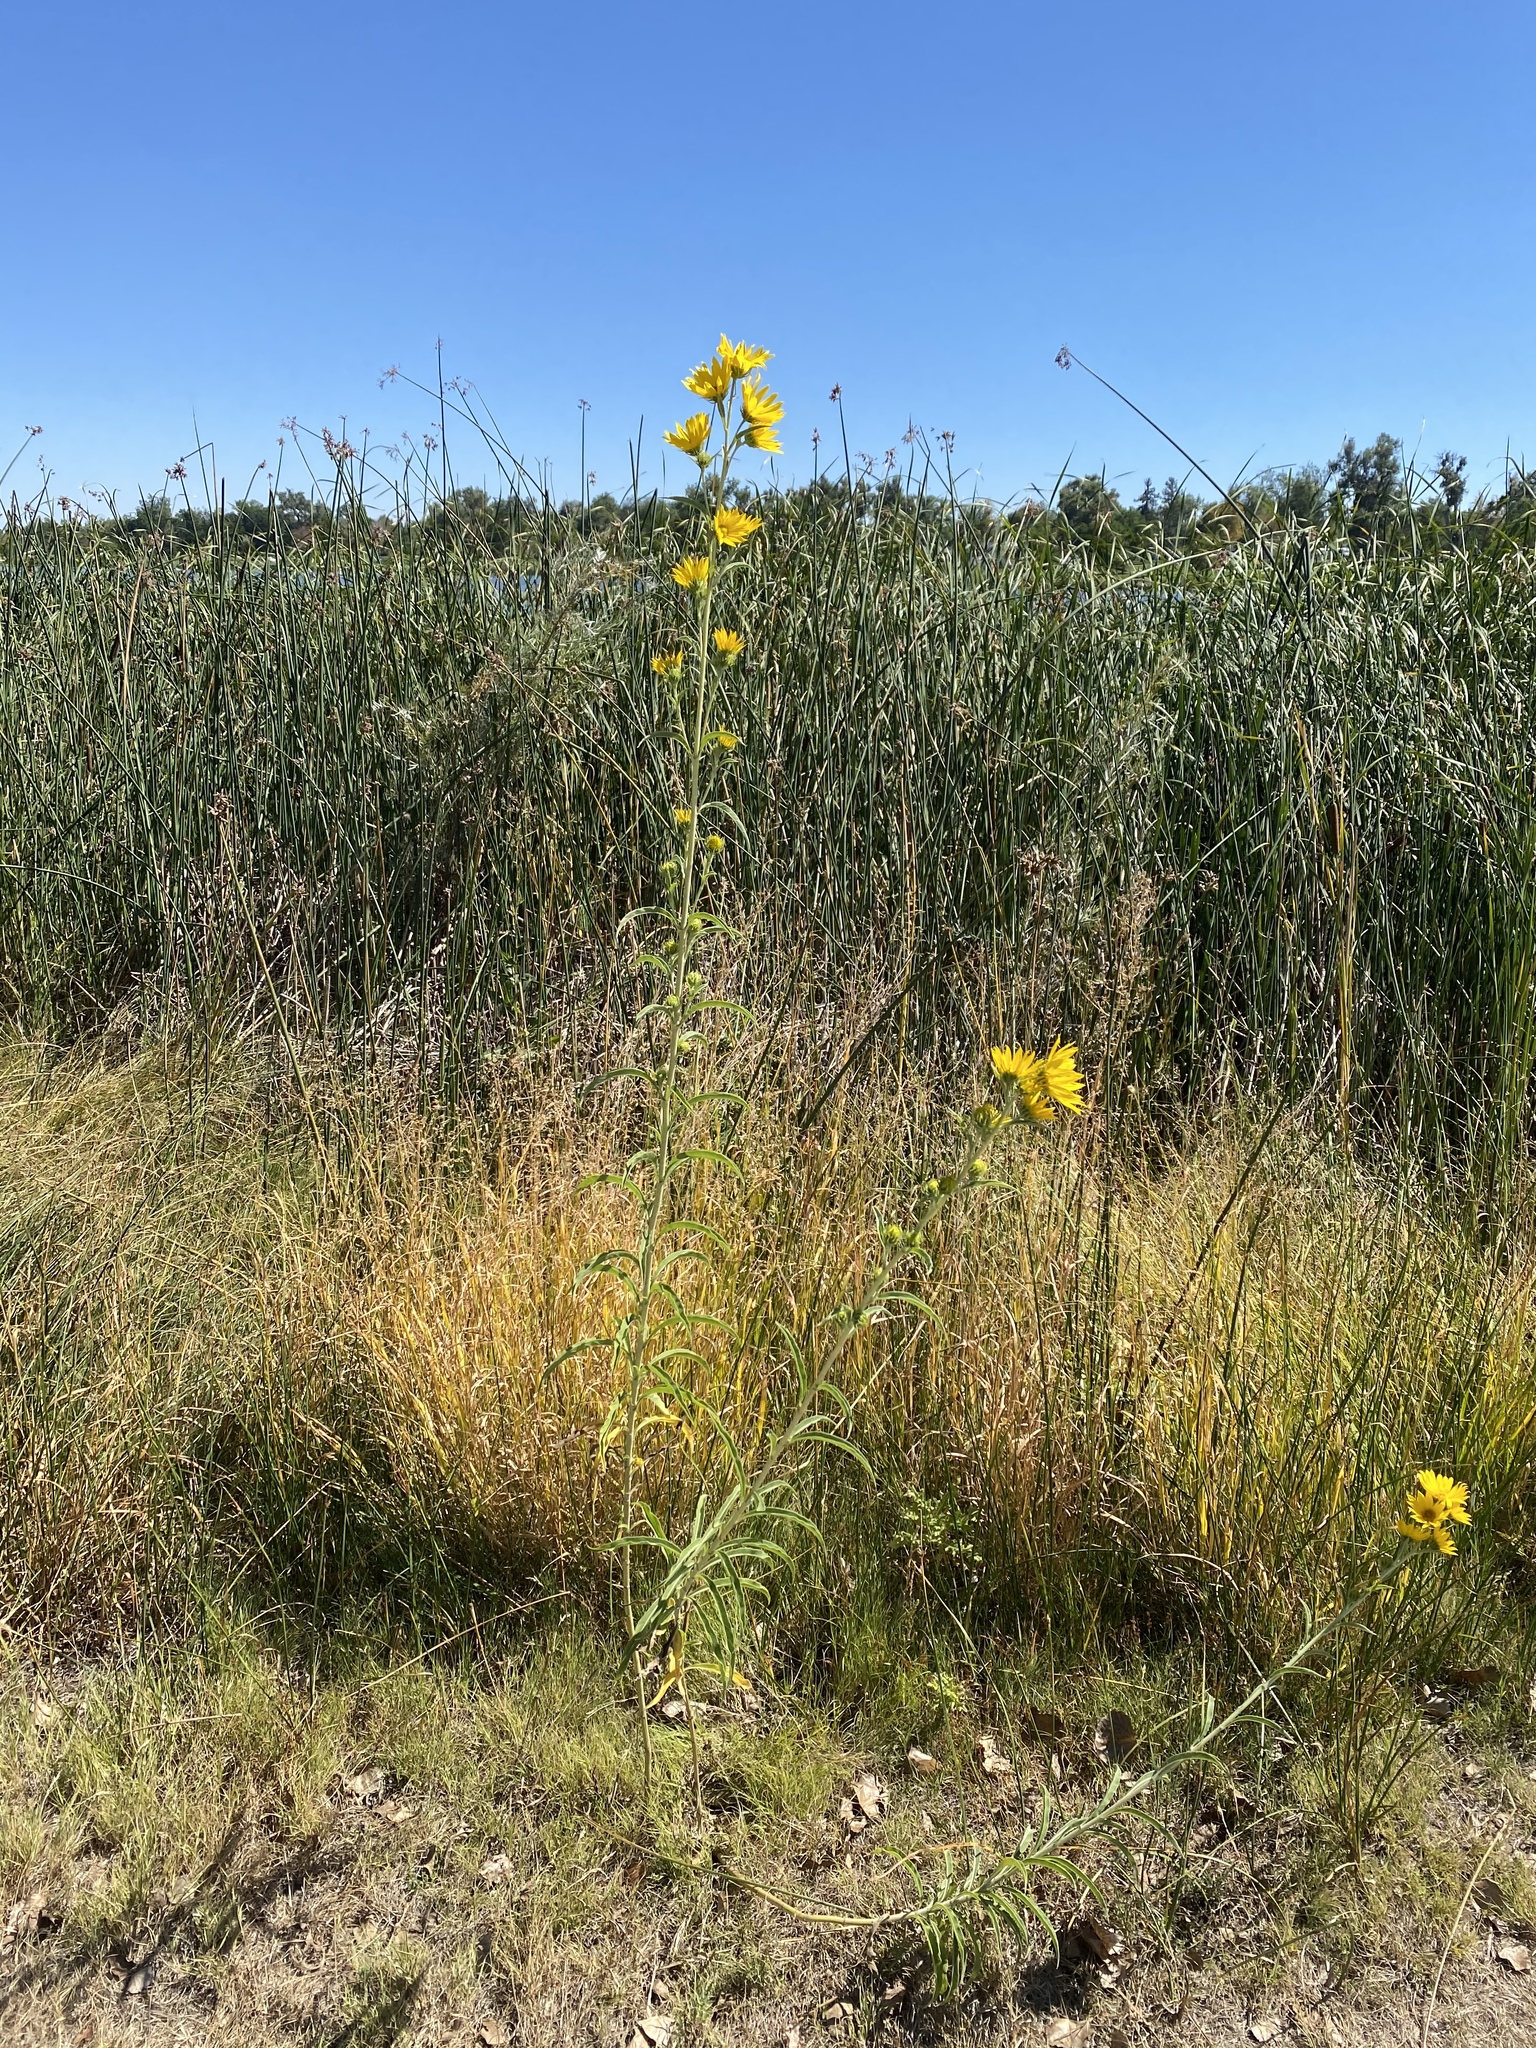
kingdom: Plantae
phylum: Tracheophyta
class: Magnoliopsida
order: Asterales
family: Asteraceae
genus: Helianthus
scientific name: Helianthus maximiliani
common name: Maximilian's sunflower
